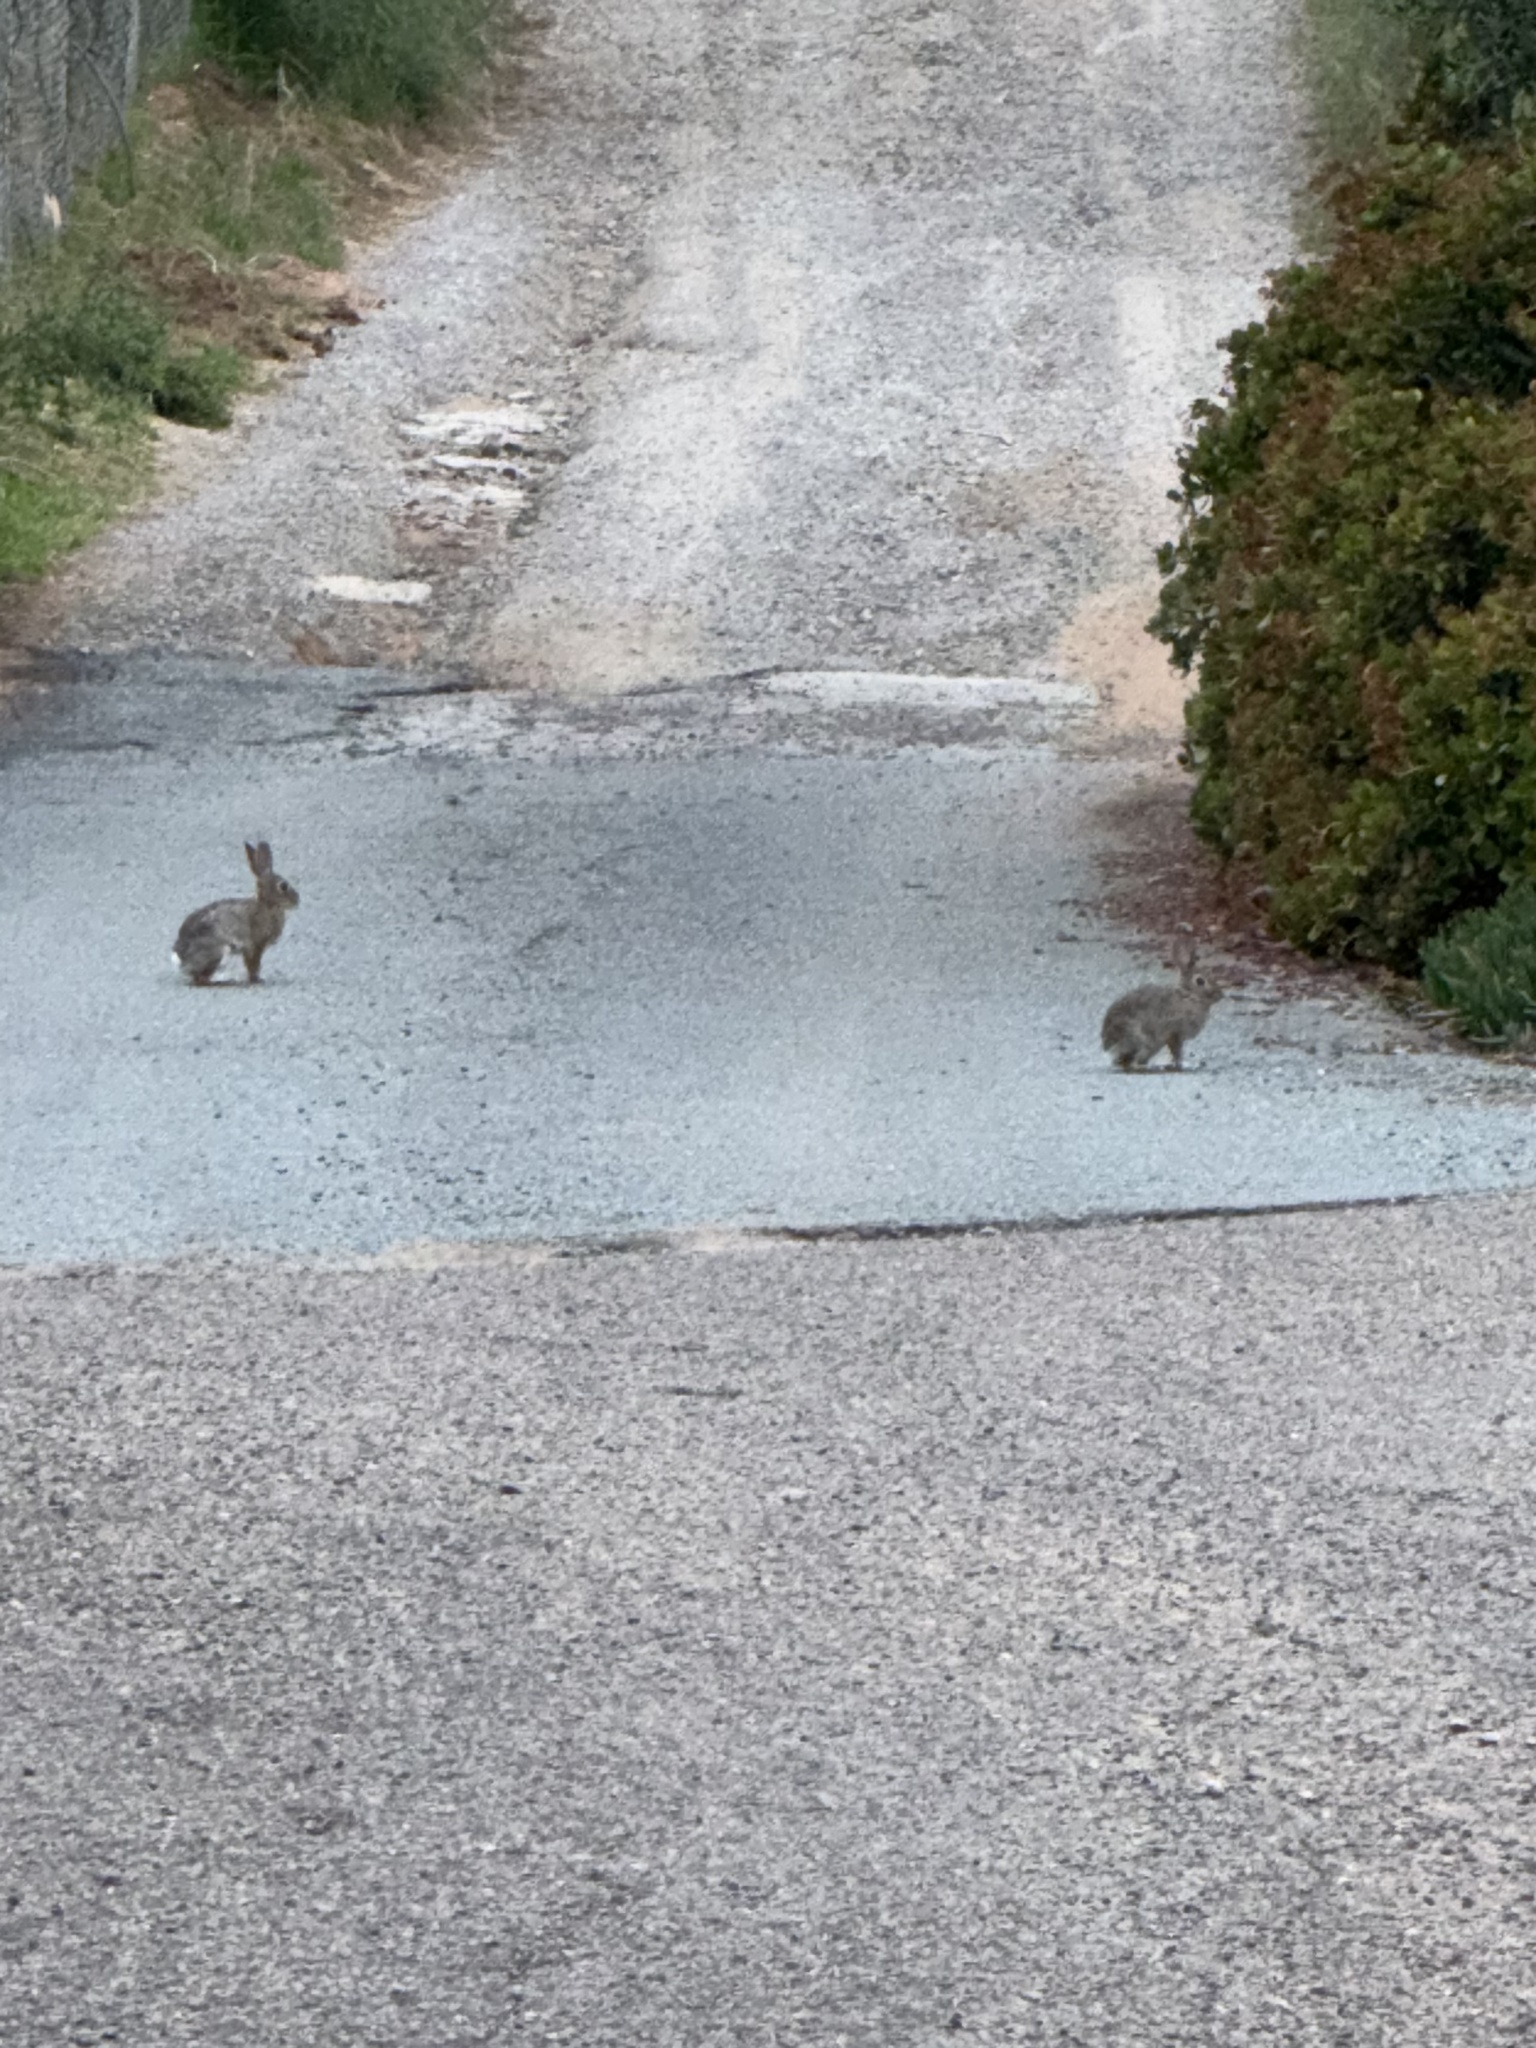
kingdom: Animalia
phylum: Chordata
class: Mammalia
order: Lagomorpha
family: Leporidae
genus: Sylvilagus
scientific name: Sylvilagus audubonii
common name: Desert cottontail
